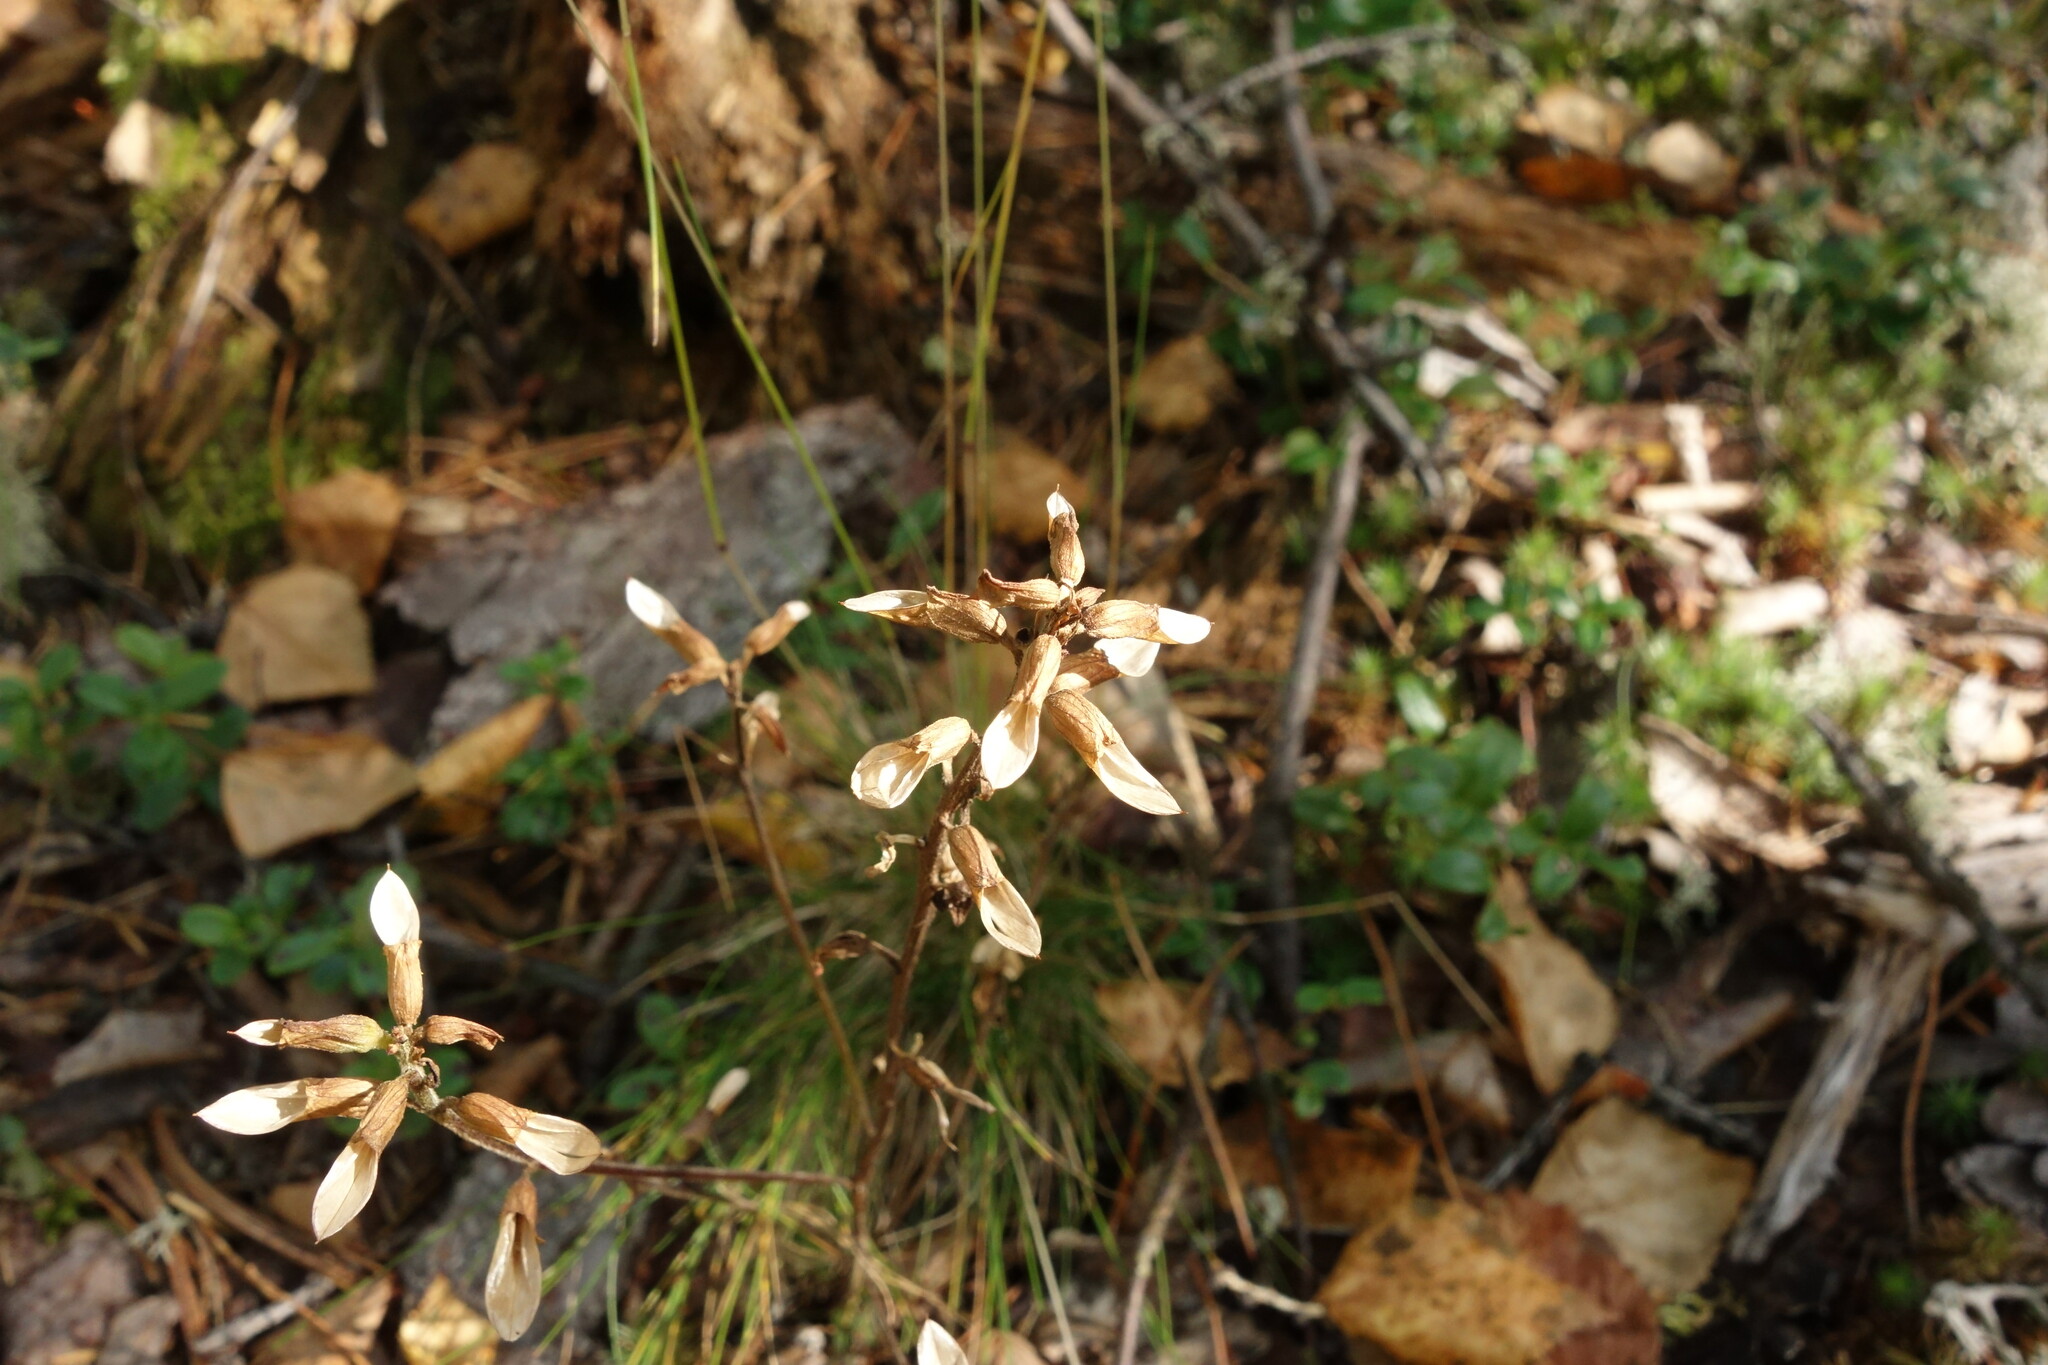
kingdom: Plantae
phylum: Tracheophyta
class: Magnoliopsida
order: Lamiales
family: Orobanchaceae
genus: Pedicularis
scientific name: Pedicularis labradorica
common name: Labrador lousewort
